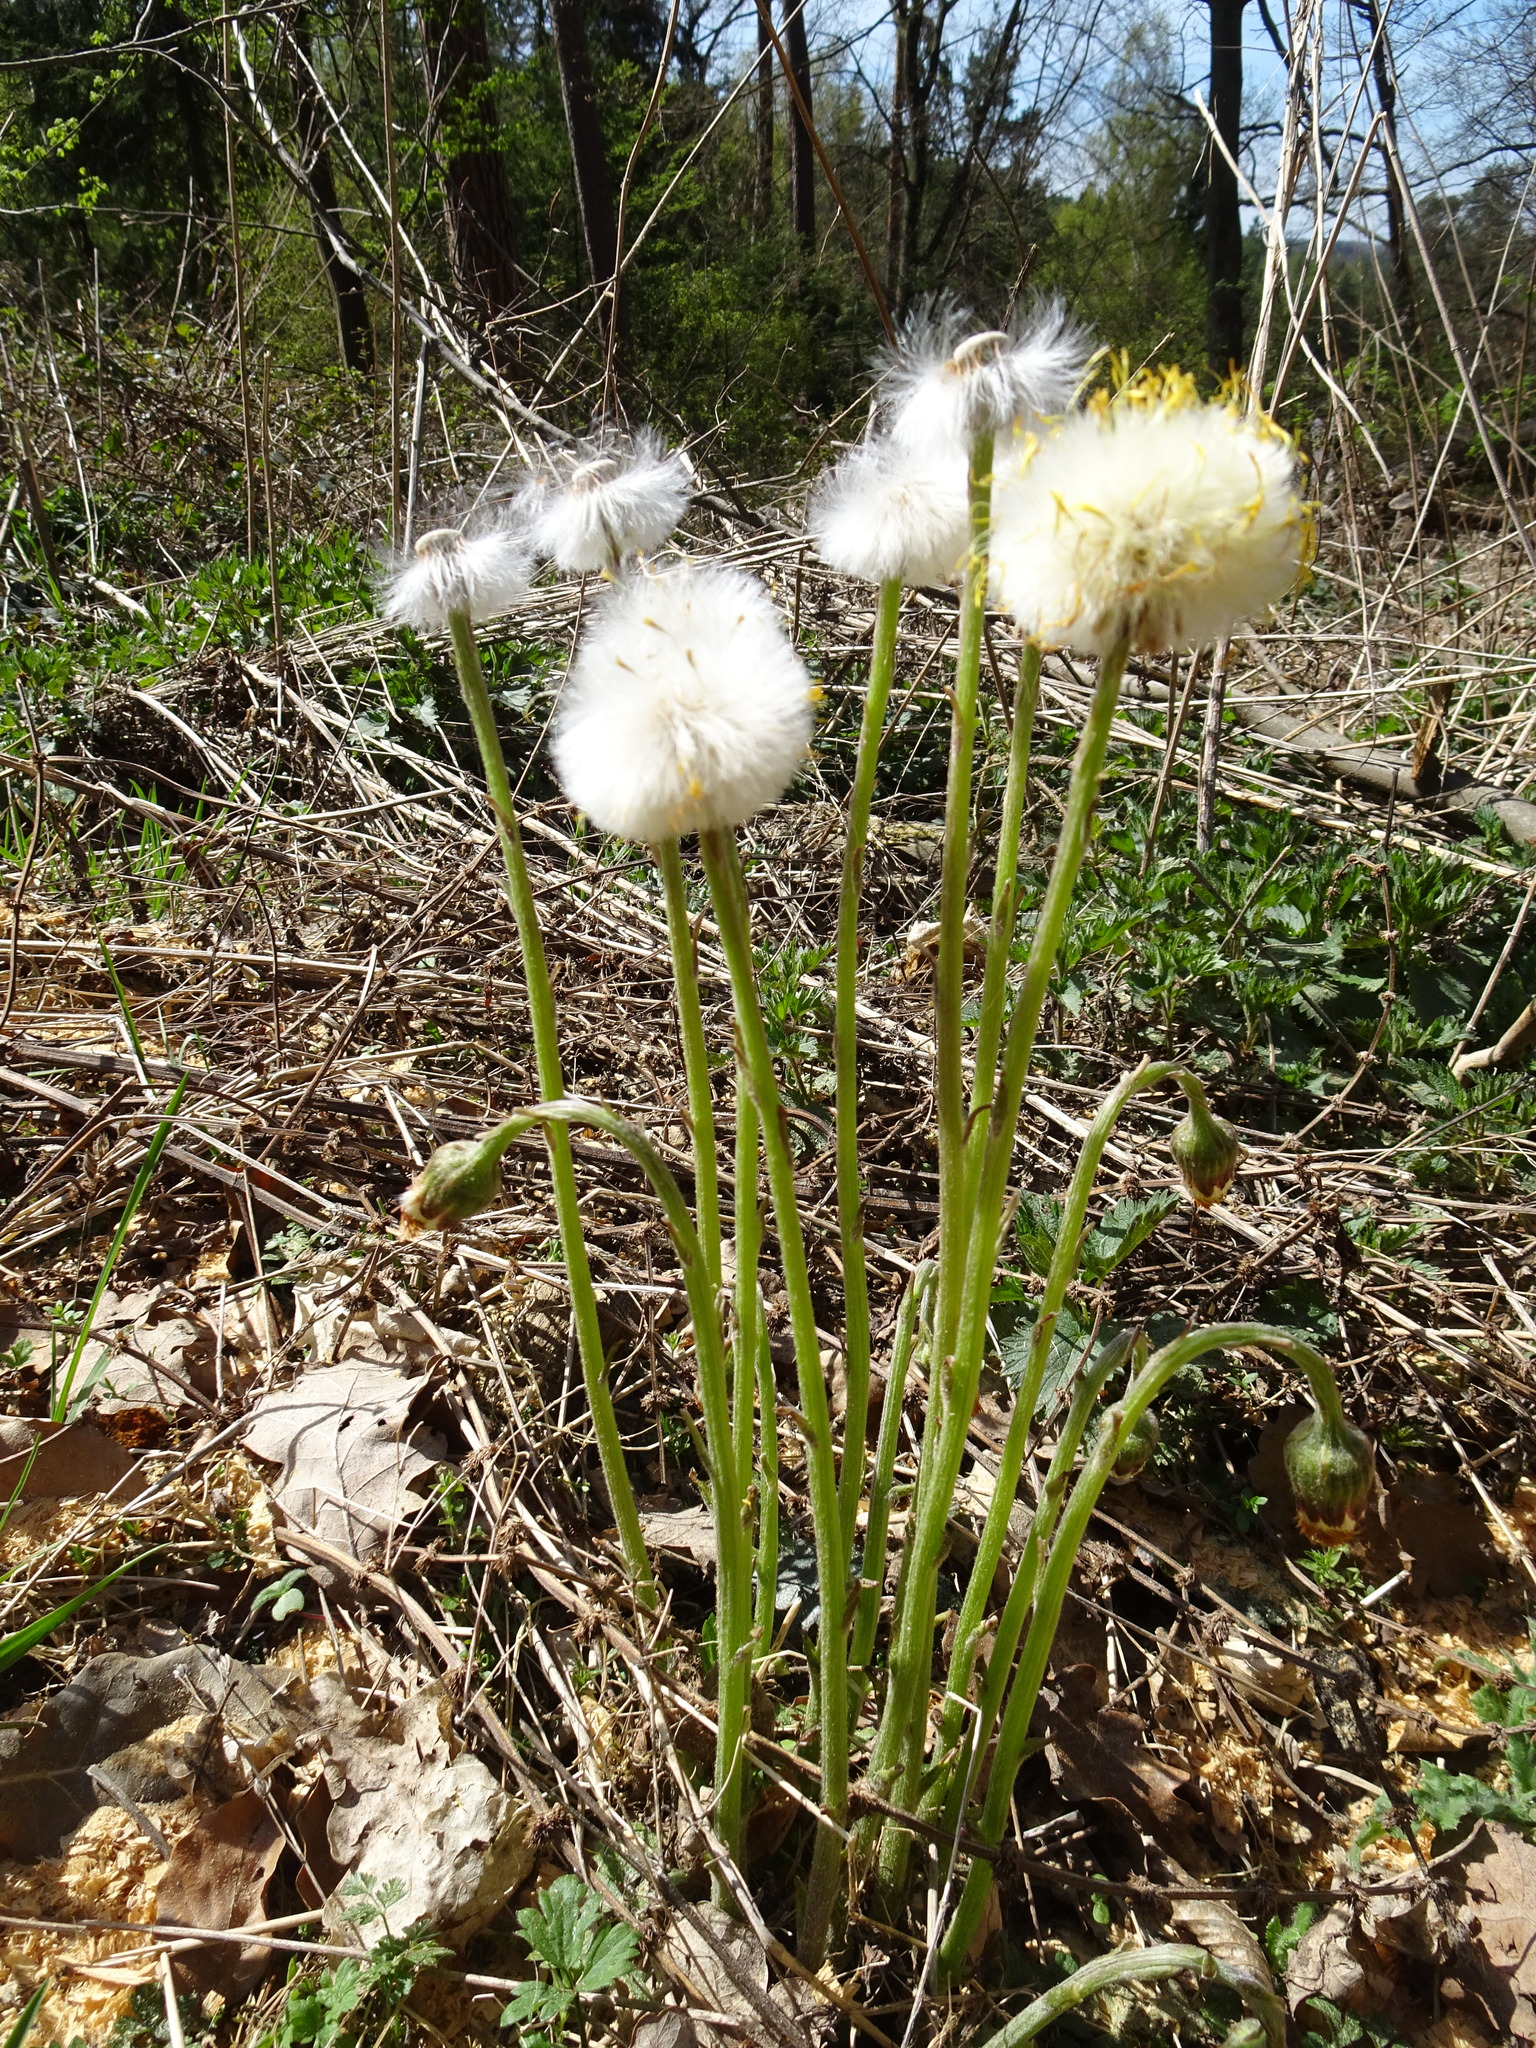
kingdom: Plantae
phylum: Tracheophyta
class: Magnoliopsida
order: Asterales
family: Asteraceae
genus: Tussilago
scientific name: Tussilago farfara
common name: Coltsfoot
